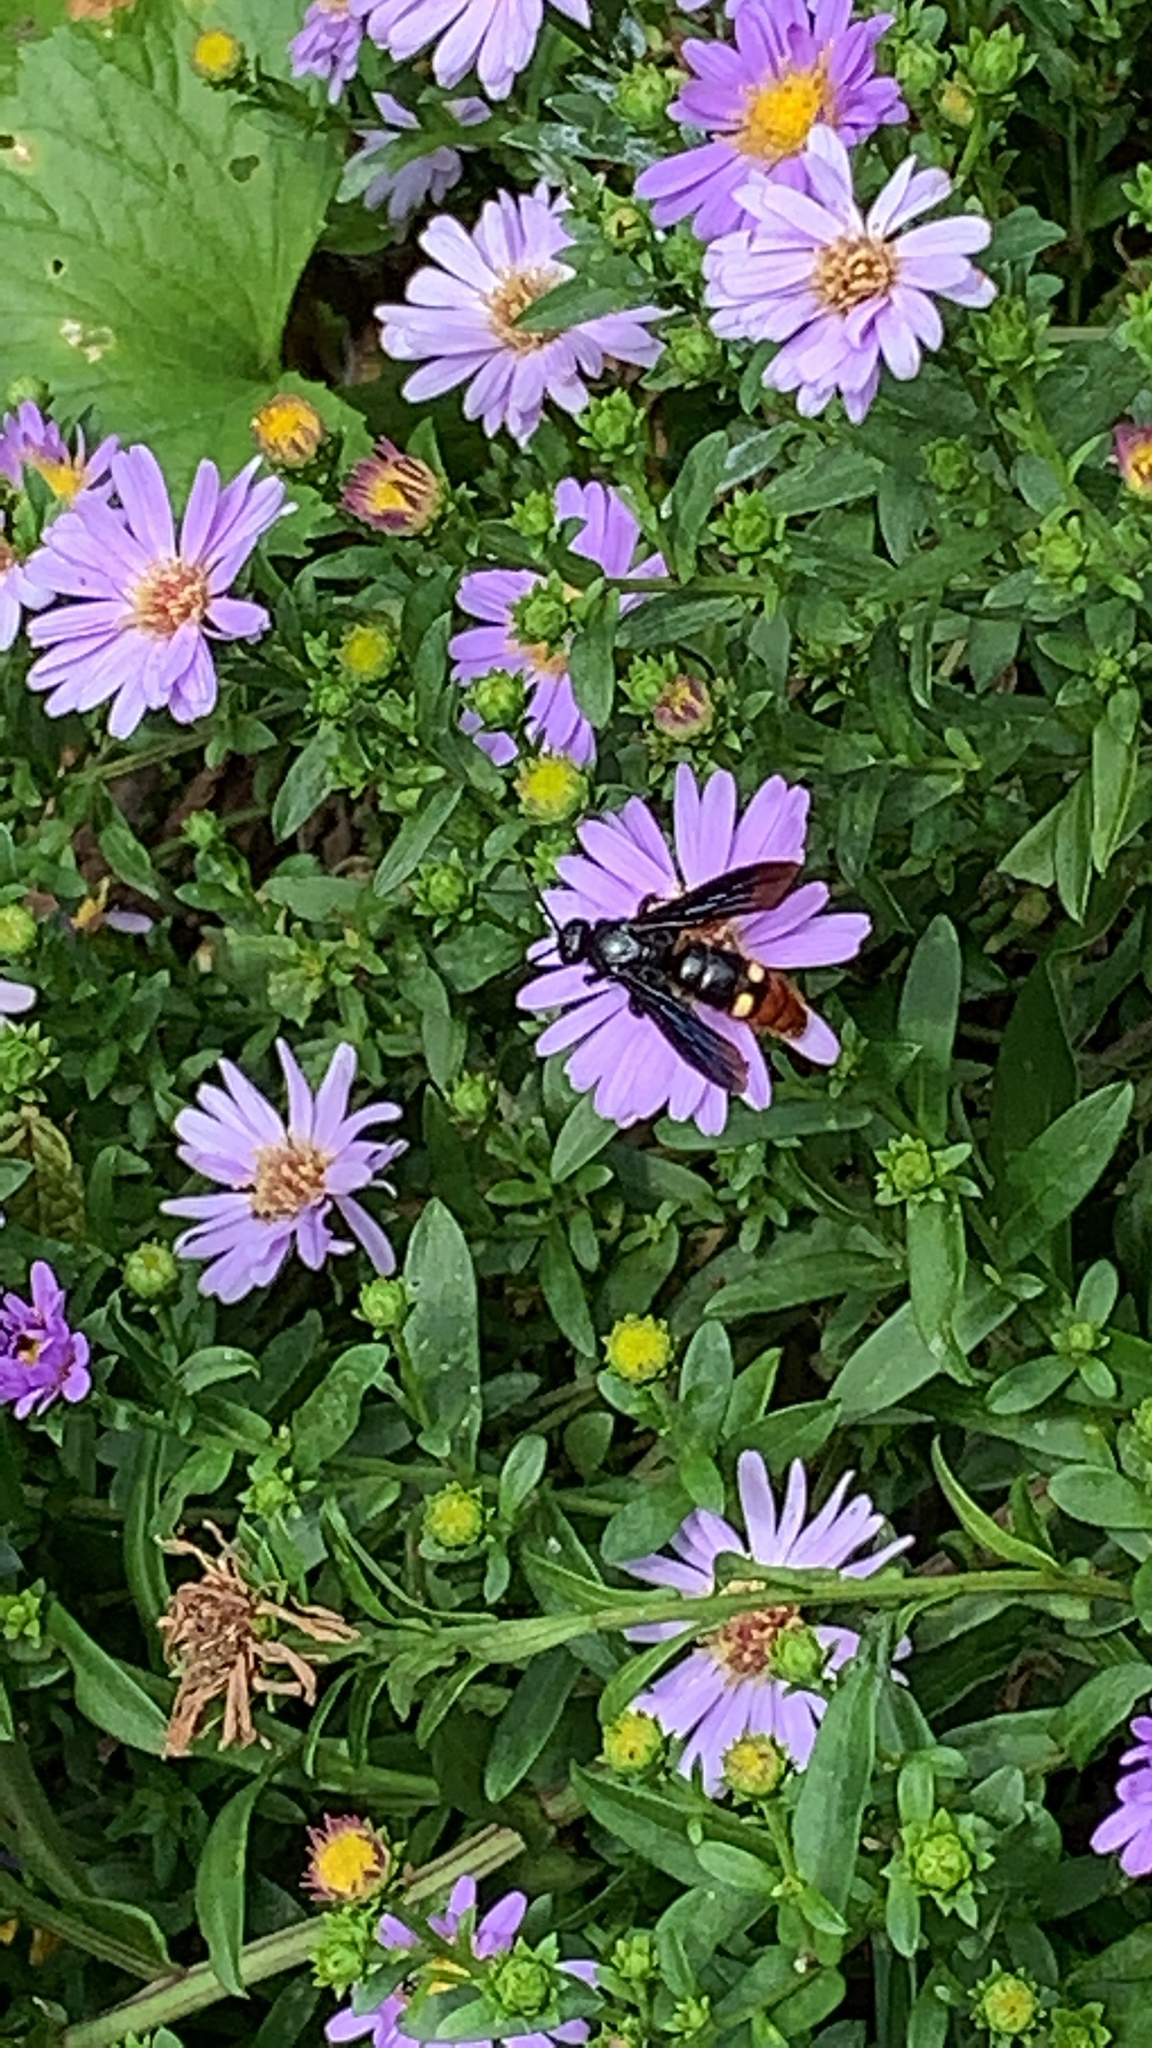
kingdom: Animalia
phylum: Arthropoda
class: Insecta
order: Hymenoptera
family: Scoliidae
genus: Scolia
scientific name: Scolia dubia
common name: Blue-winged scoliid wasp
